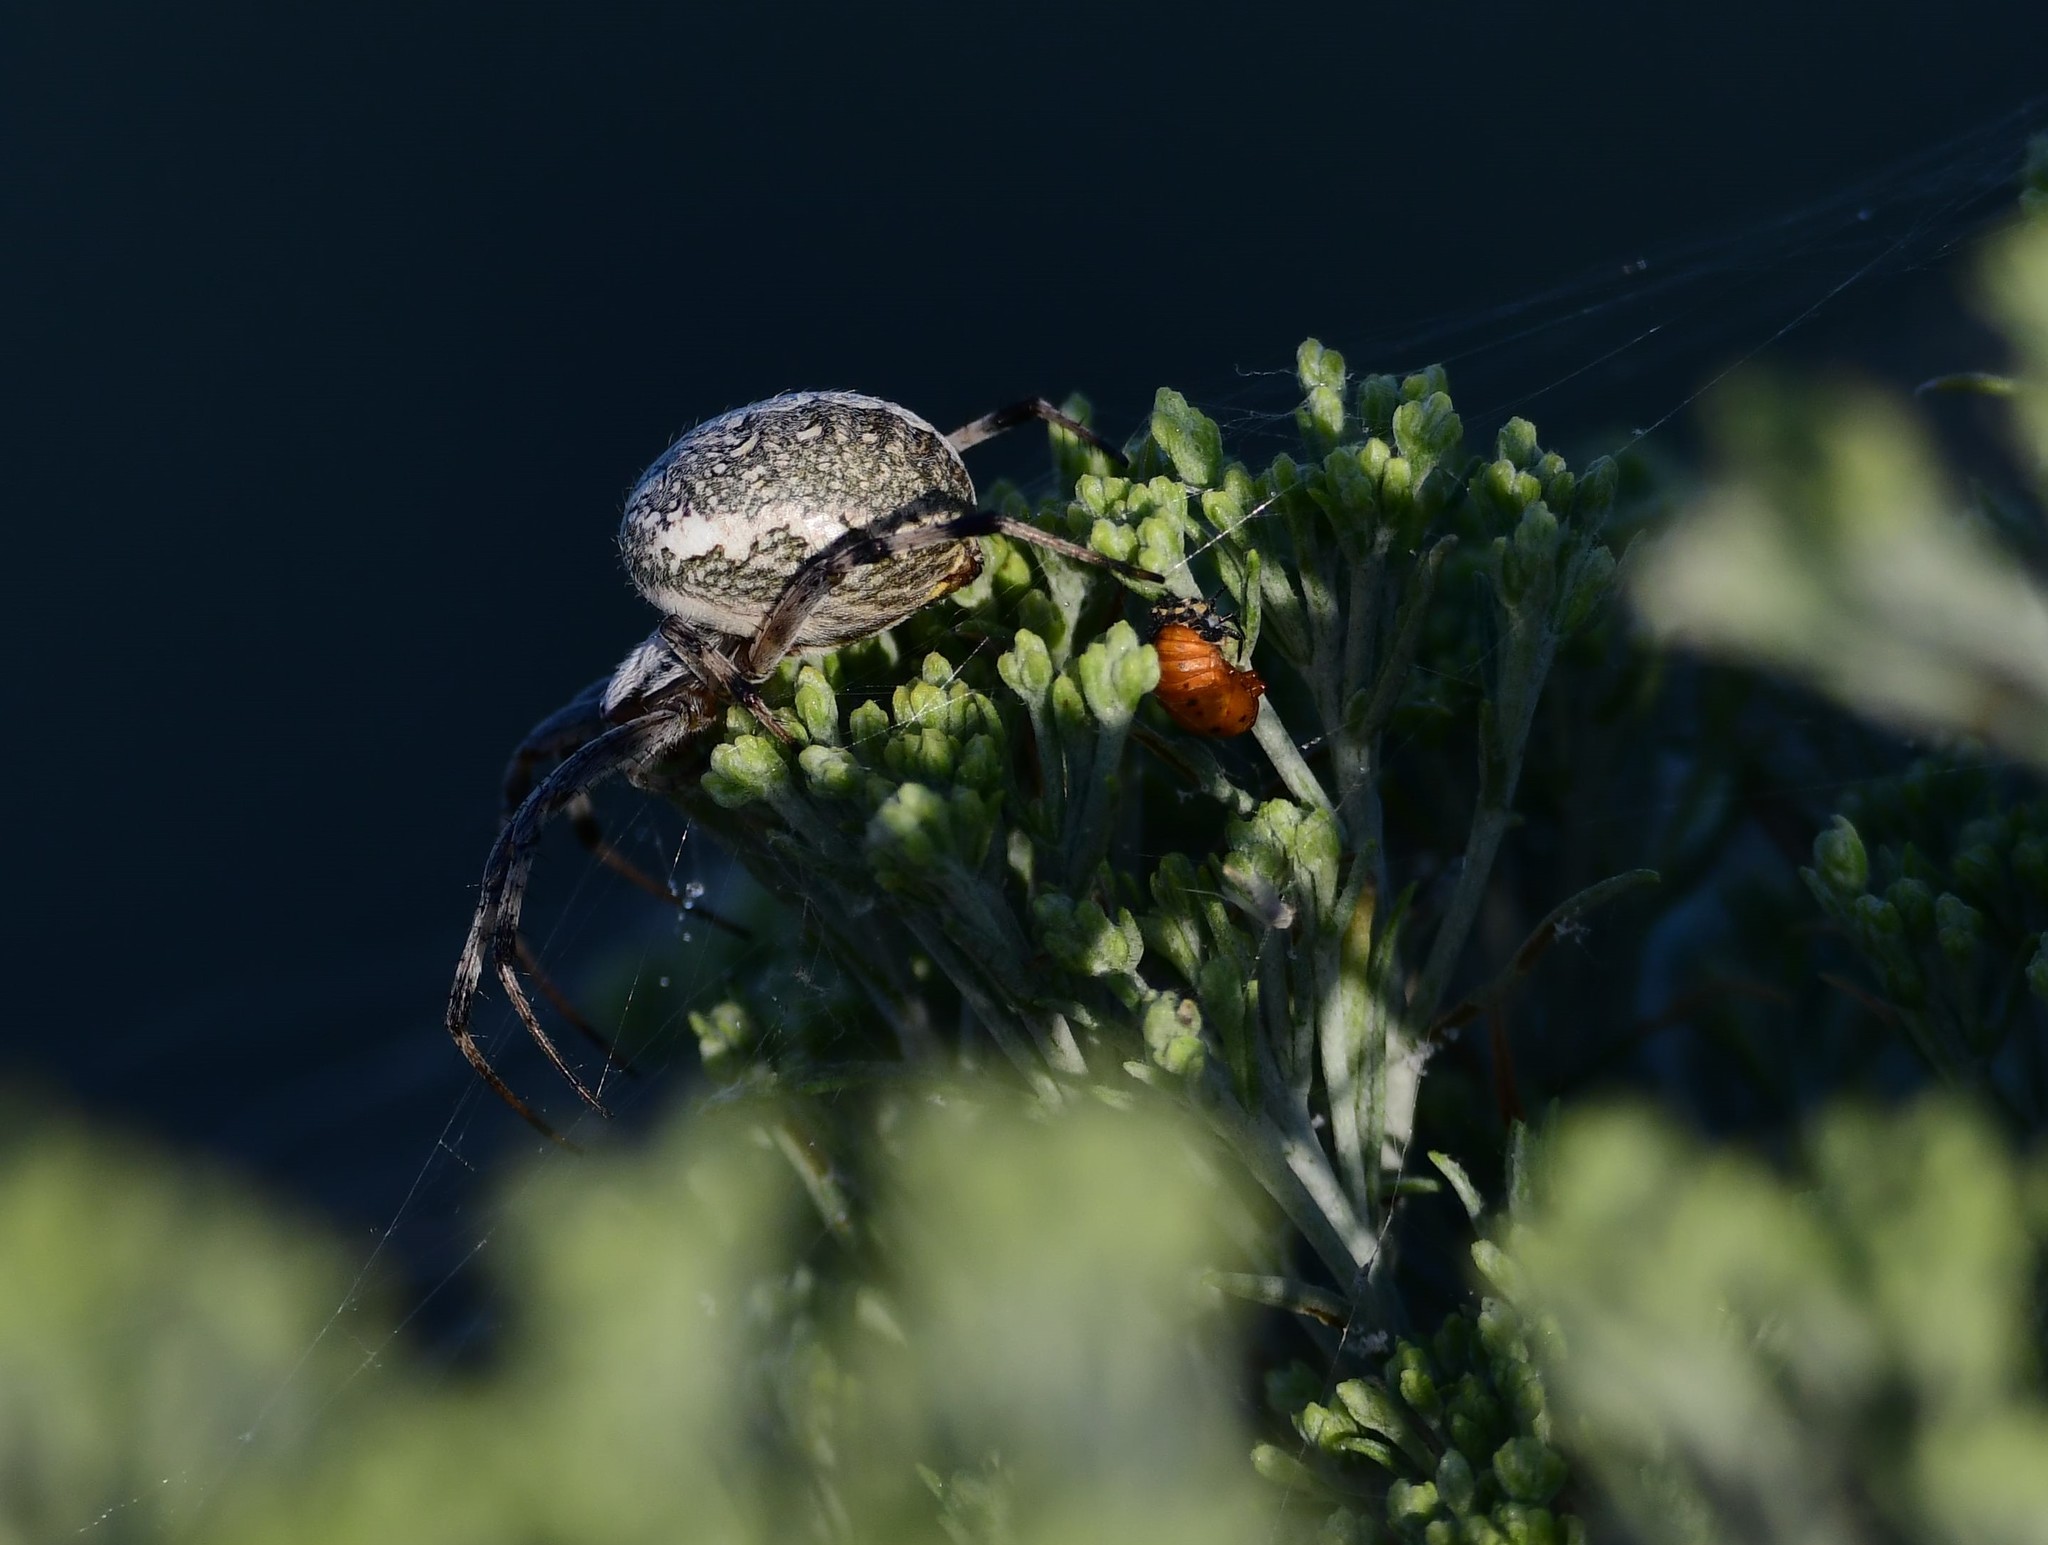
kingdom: Animalia
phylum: Arthropoda
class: Arachnida
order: Araneae
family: Araneidae
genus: Neoscona
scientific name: Neoscona oaxacensis
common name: Orb weavers
